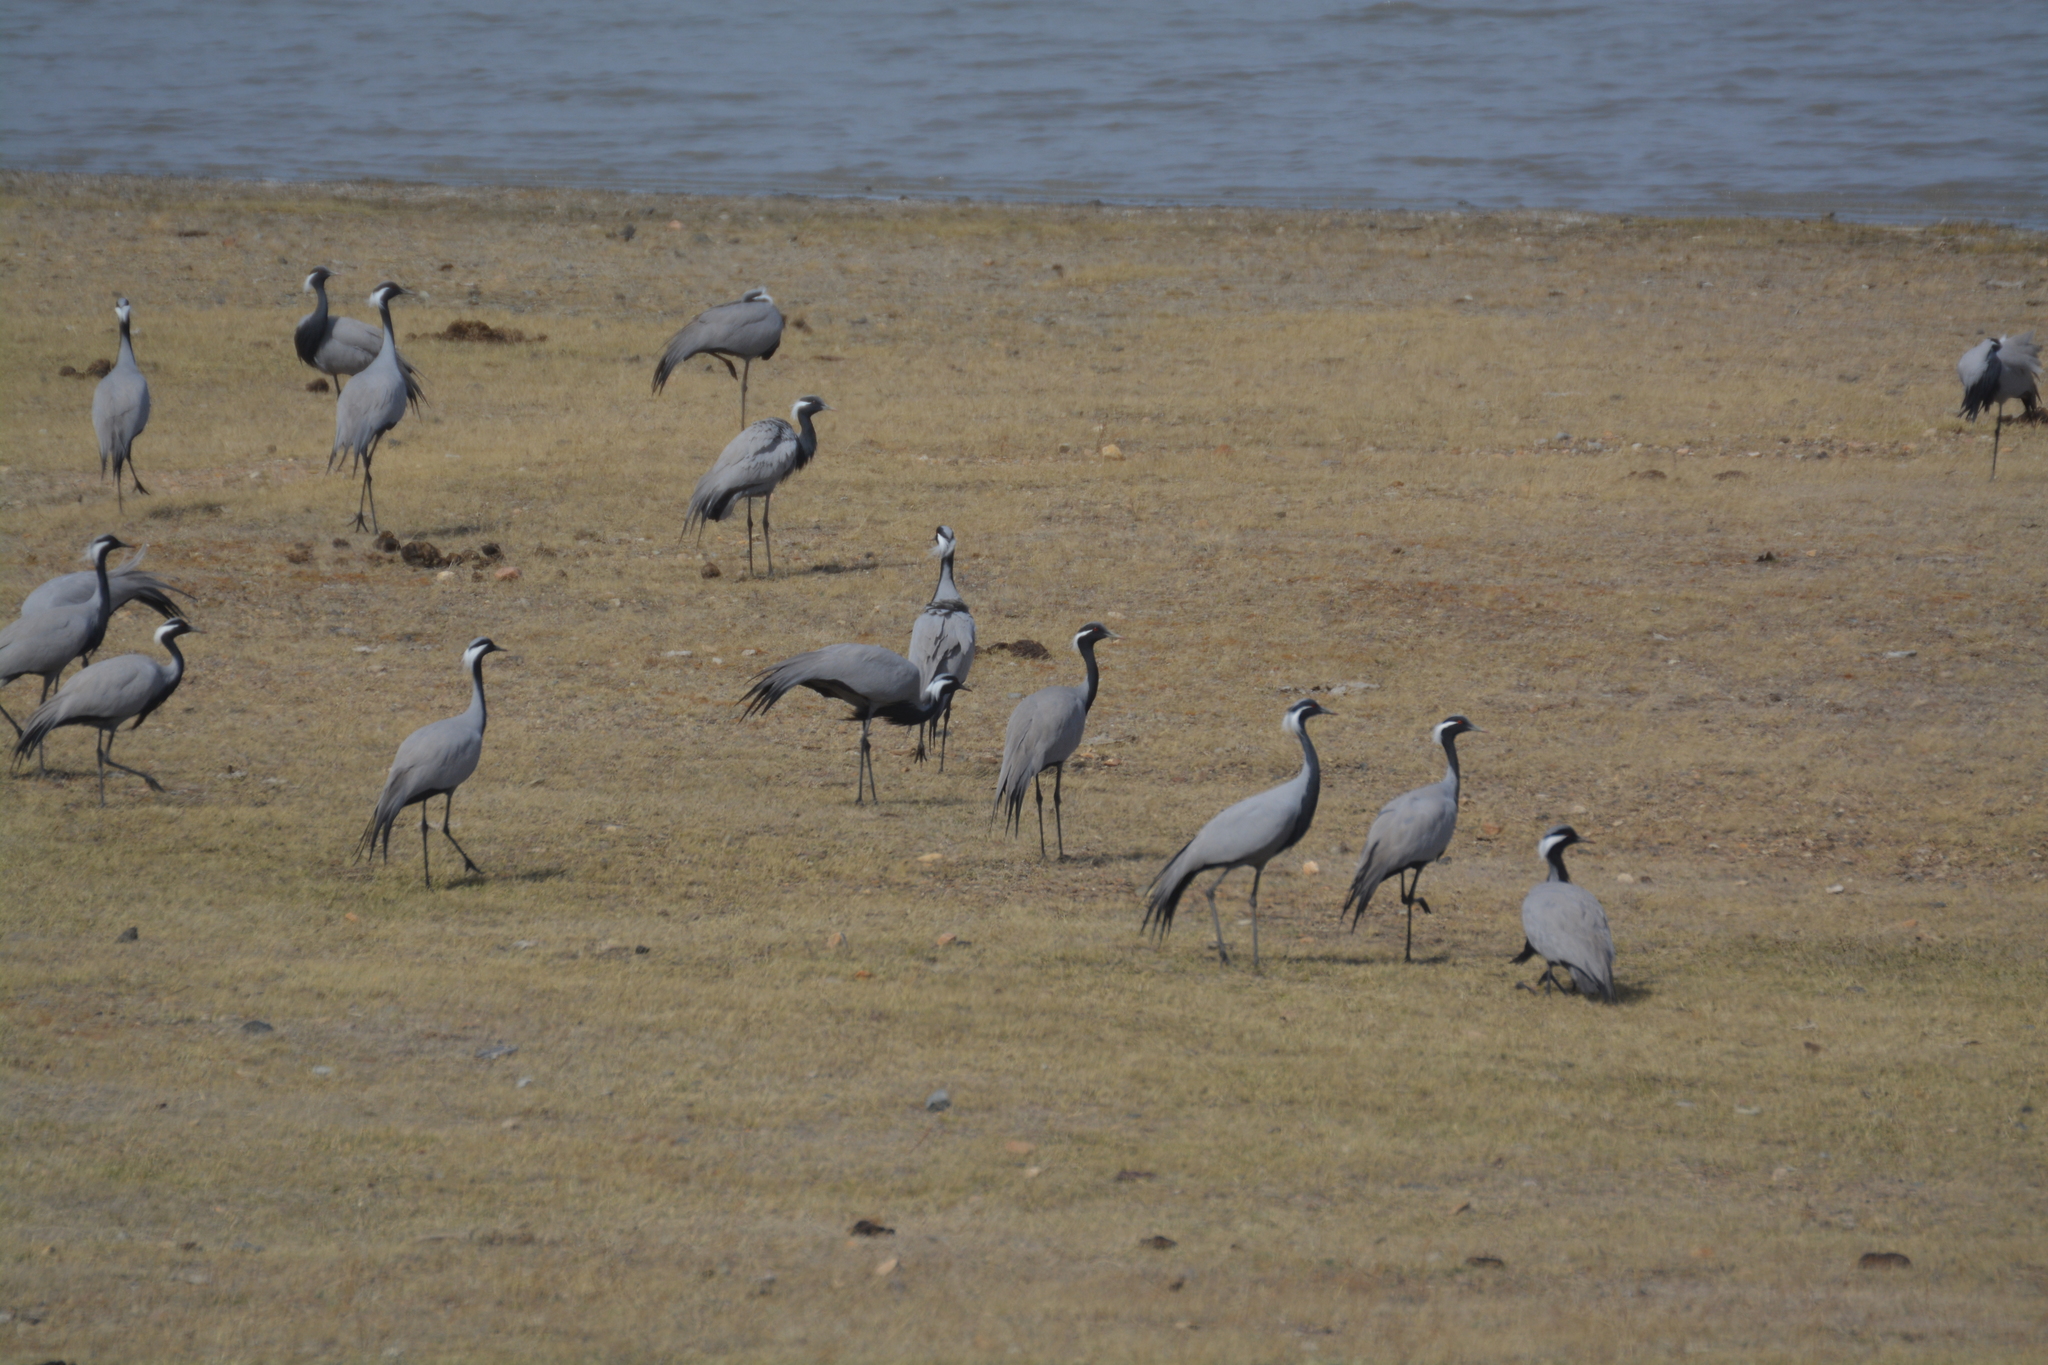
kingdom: Animalia
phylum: Chordata
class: Aves
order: Gruiformes
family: Gruidae
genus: Anthropoides
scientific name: Anthropoides virgo
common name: Demoiselle crane
